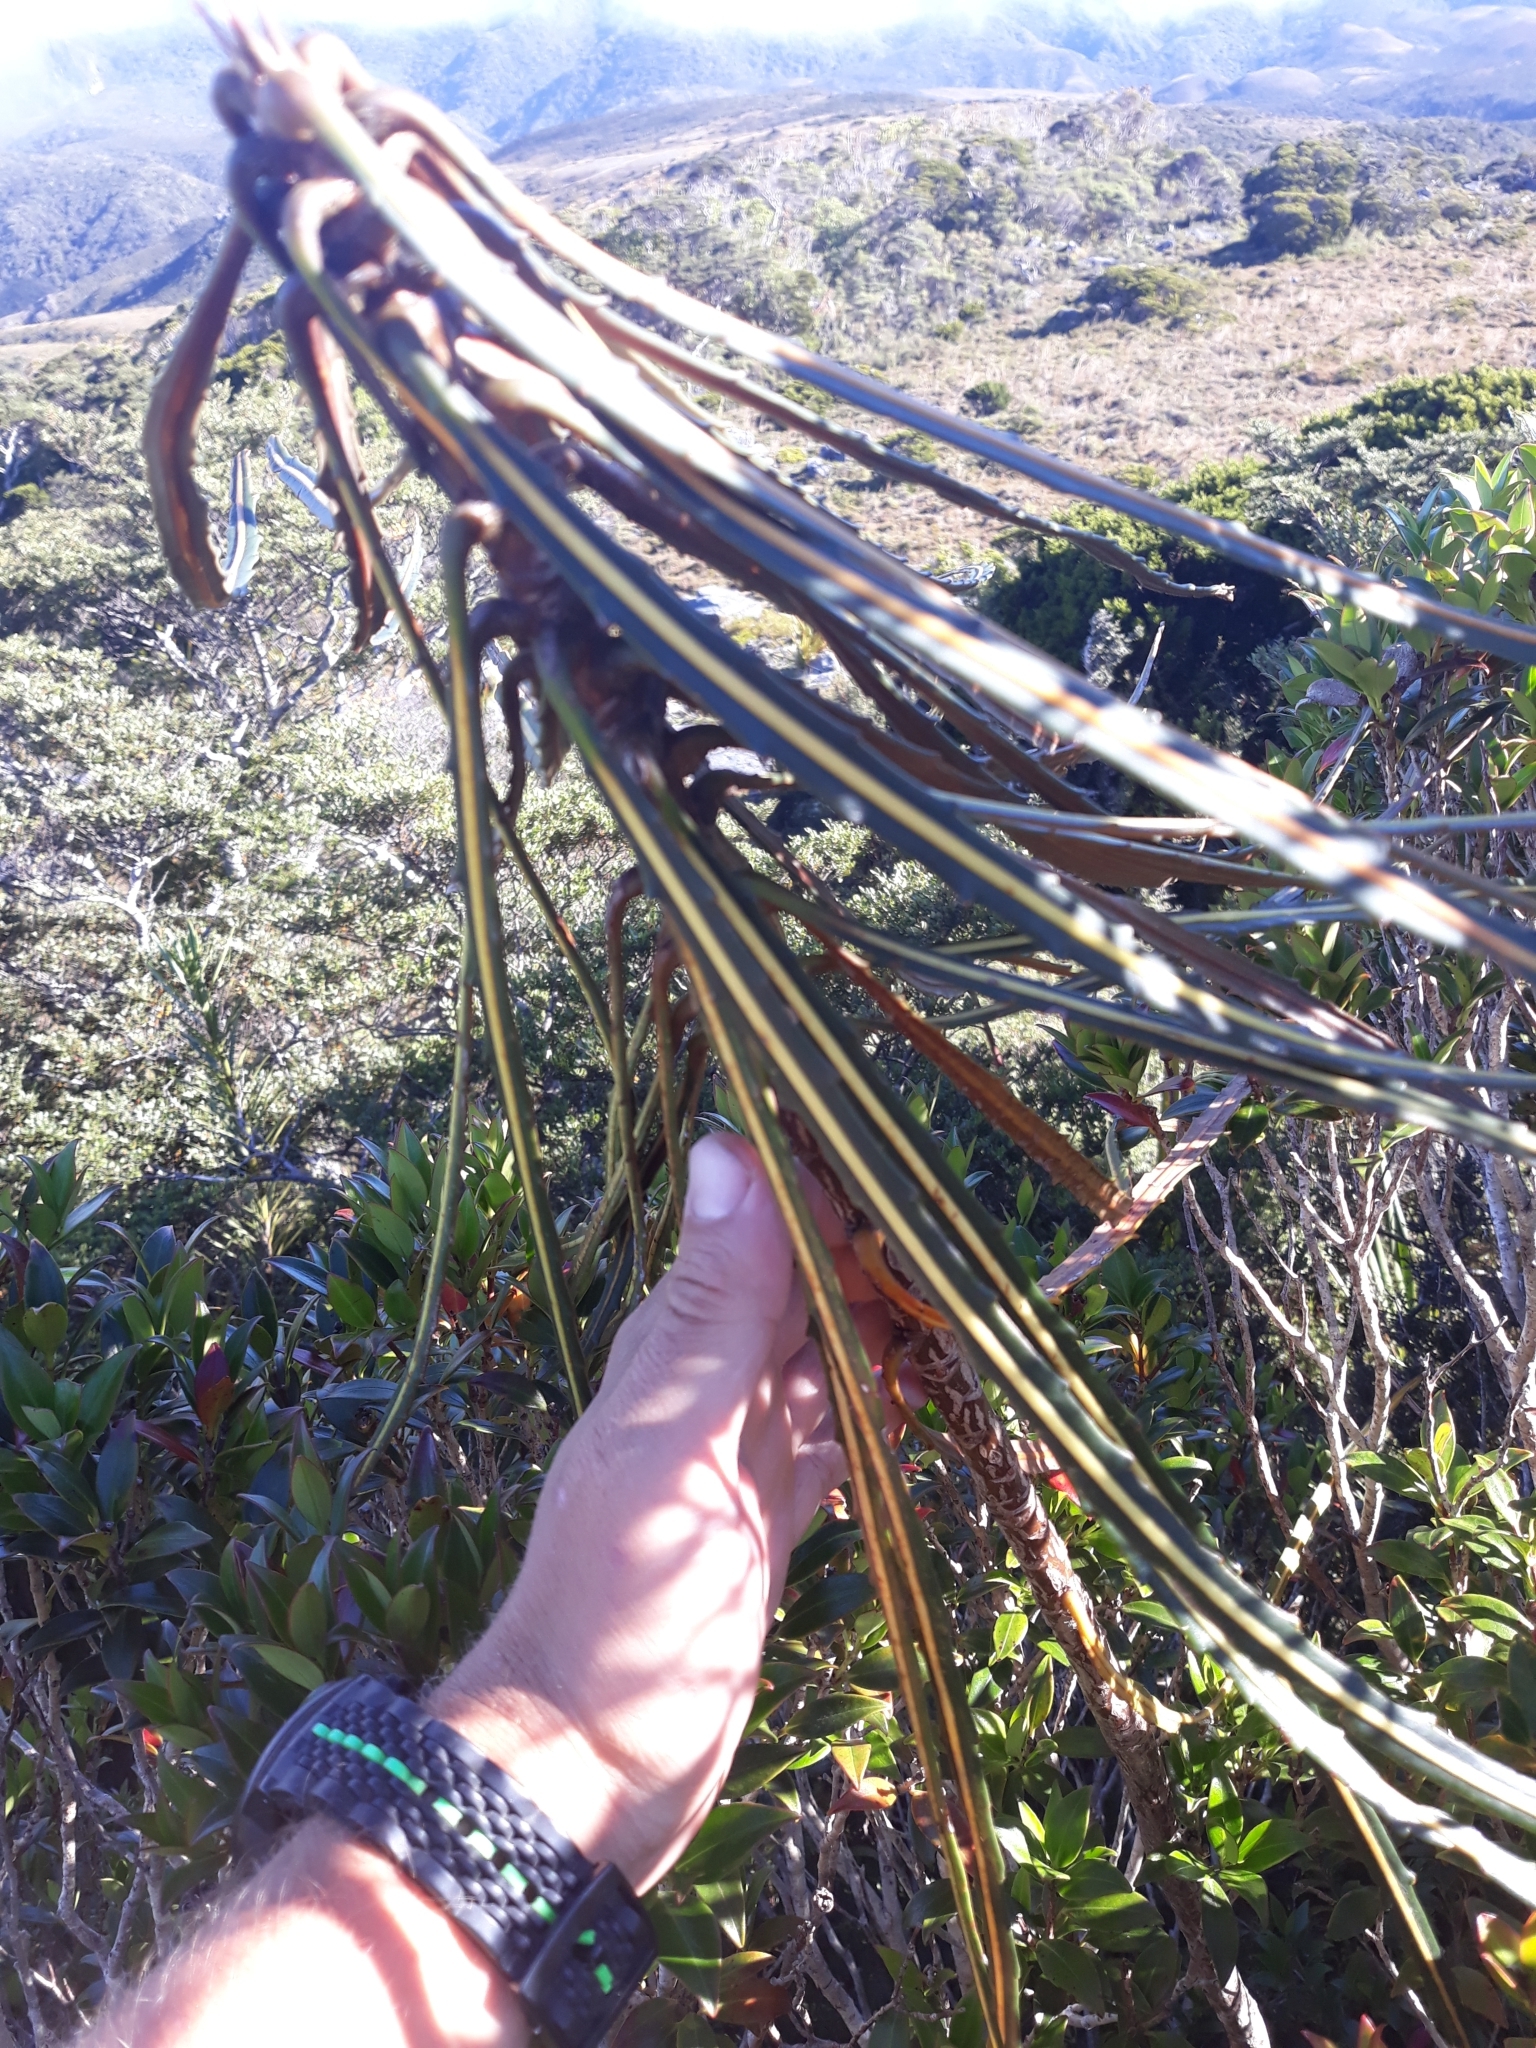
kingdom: Plantae
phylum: Tracheophyta
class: Magnoliopsida
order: Apiales
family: Araliaceae
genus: Pseudopanax
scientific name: Pseudopanax crassifolius
